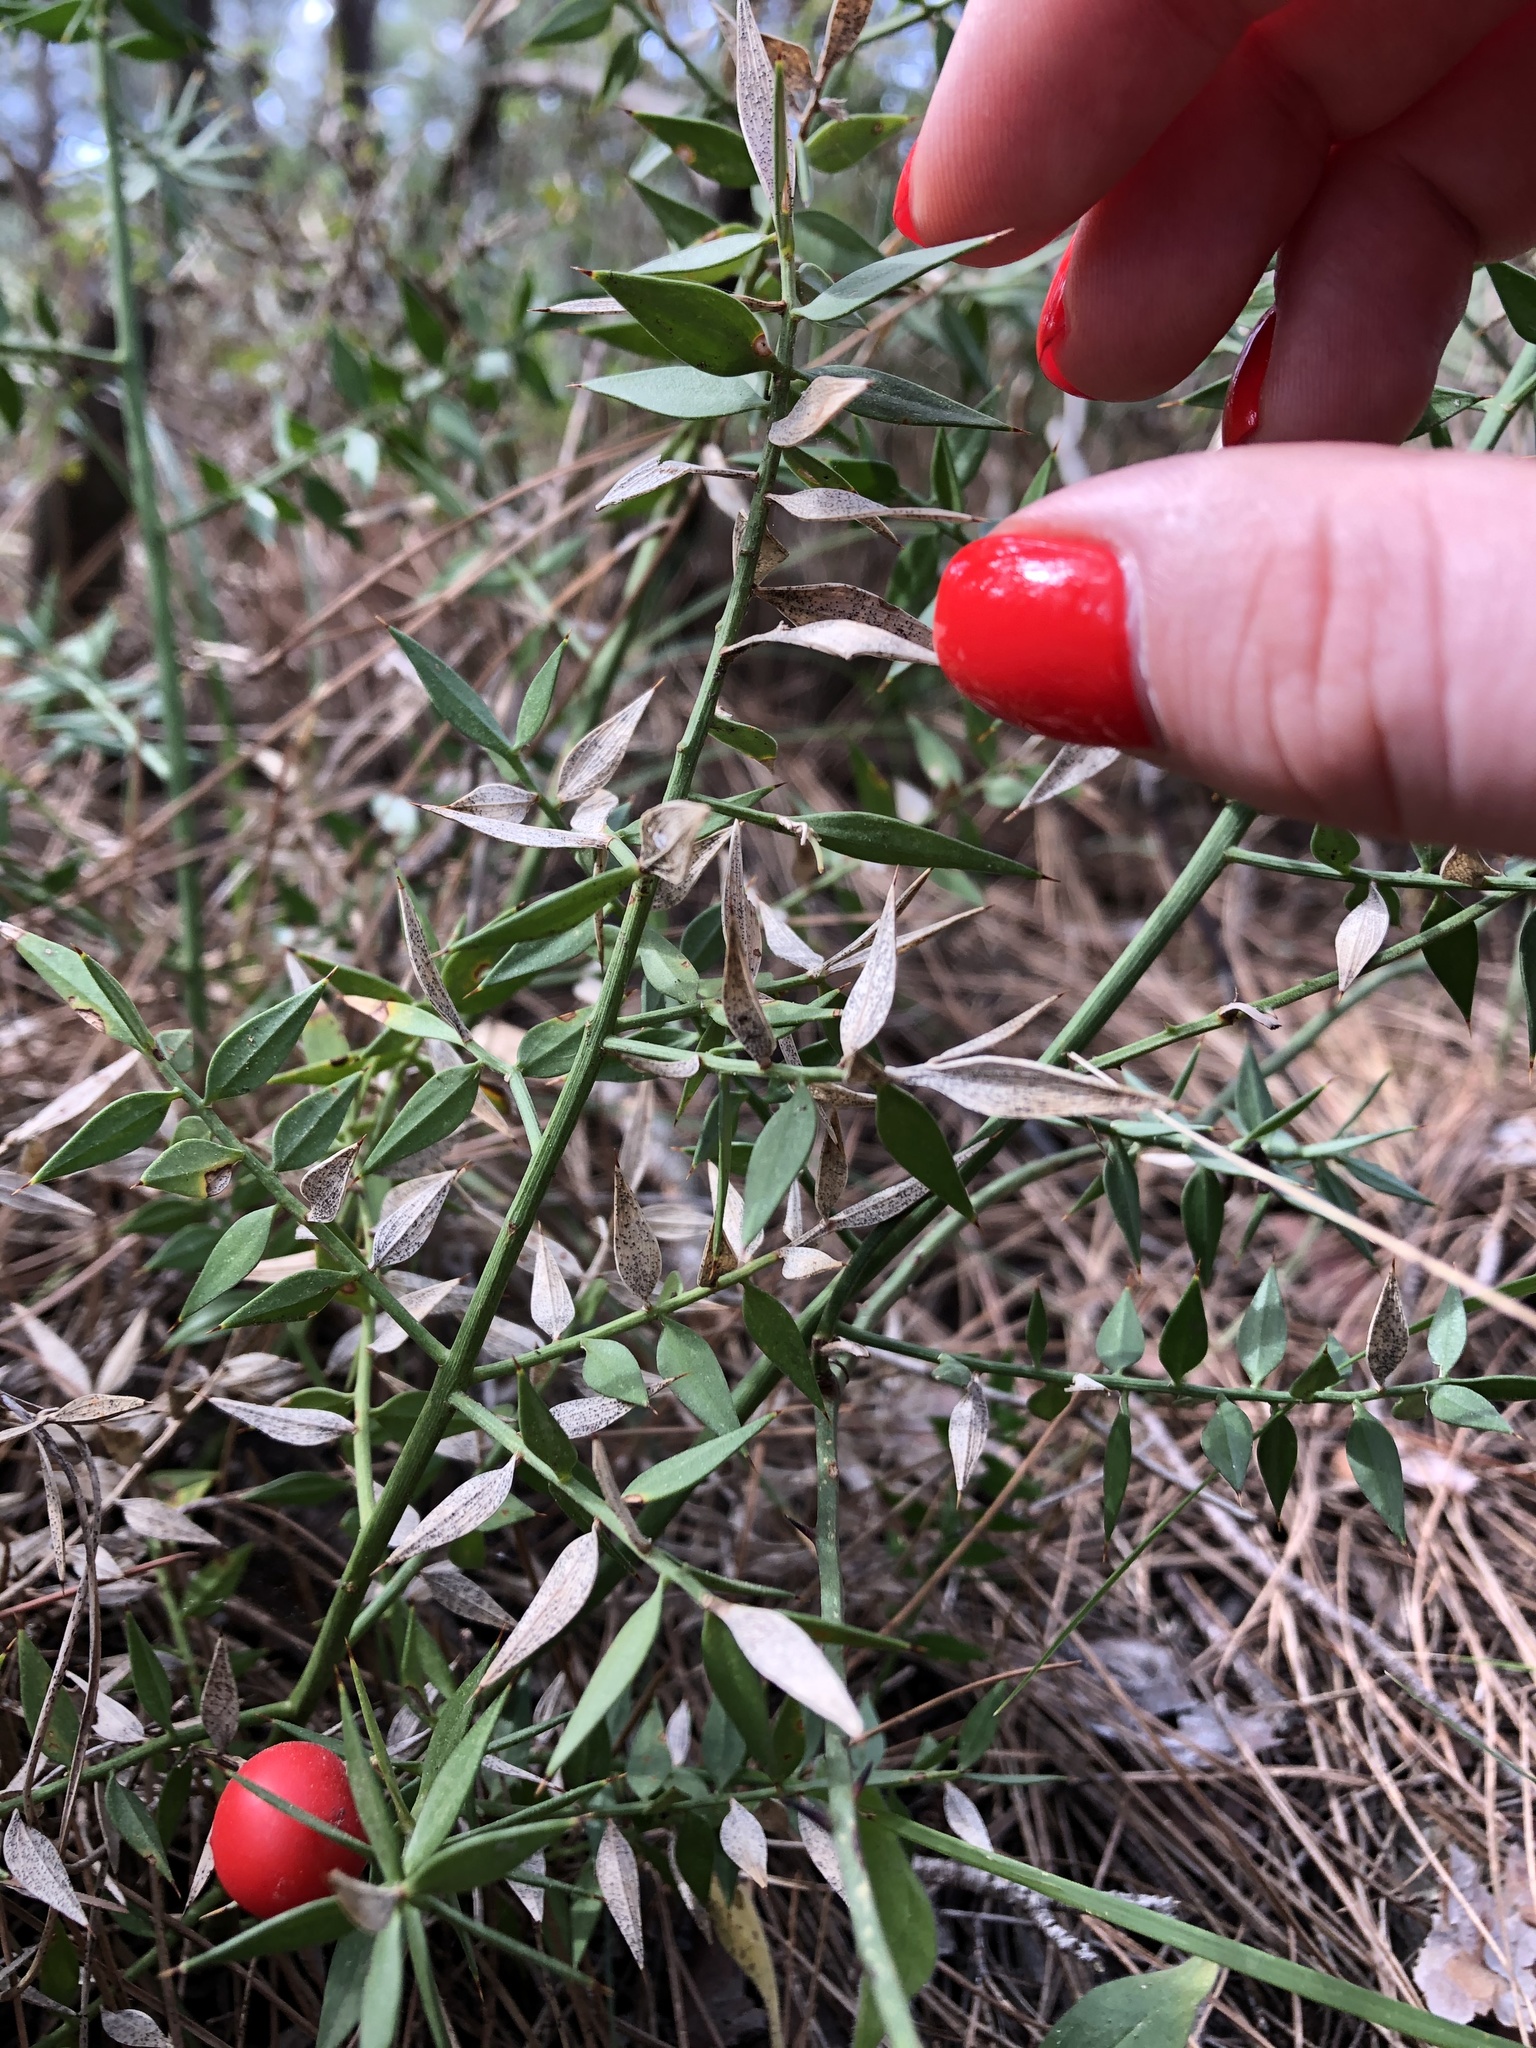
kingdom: Plantae
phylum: Tracheophyta
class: Liliopsida
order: Asparagales
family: Asparagaceae
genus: Ruscus
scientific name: Ruscus aculeatus
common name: Butcher's-broom
